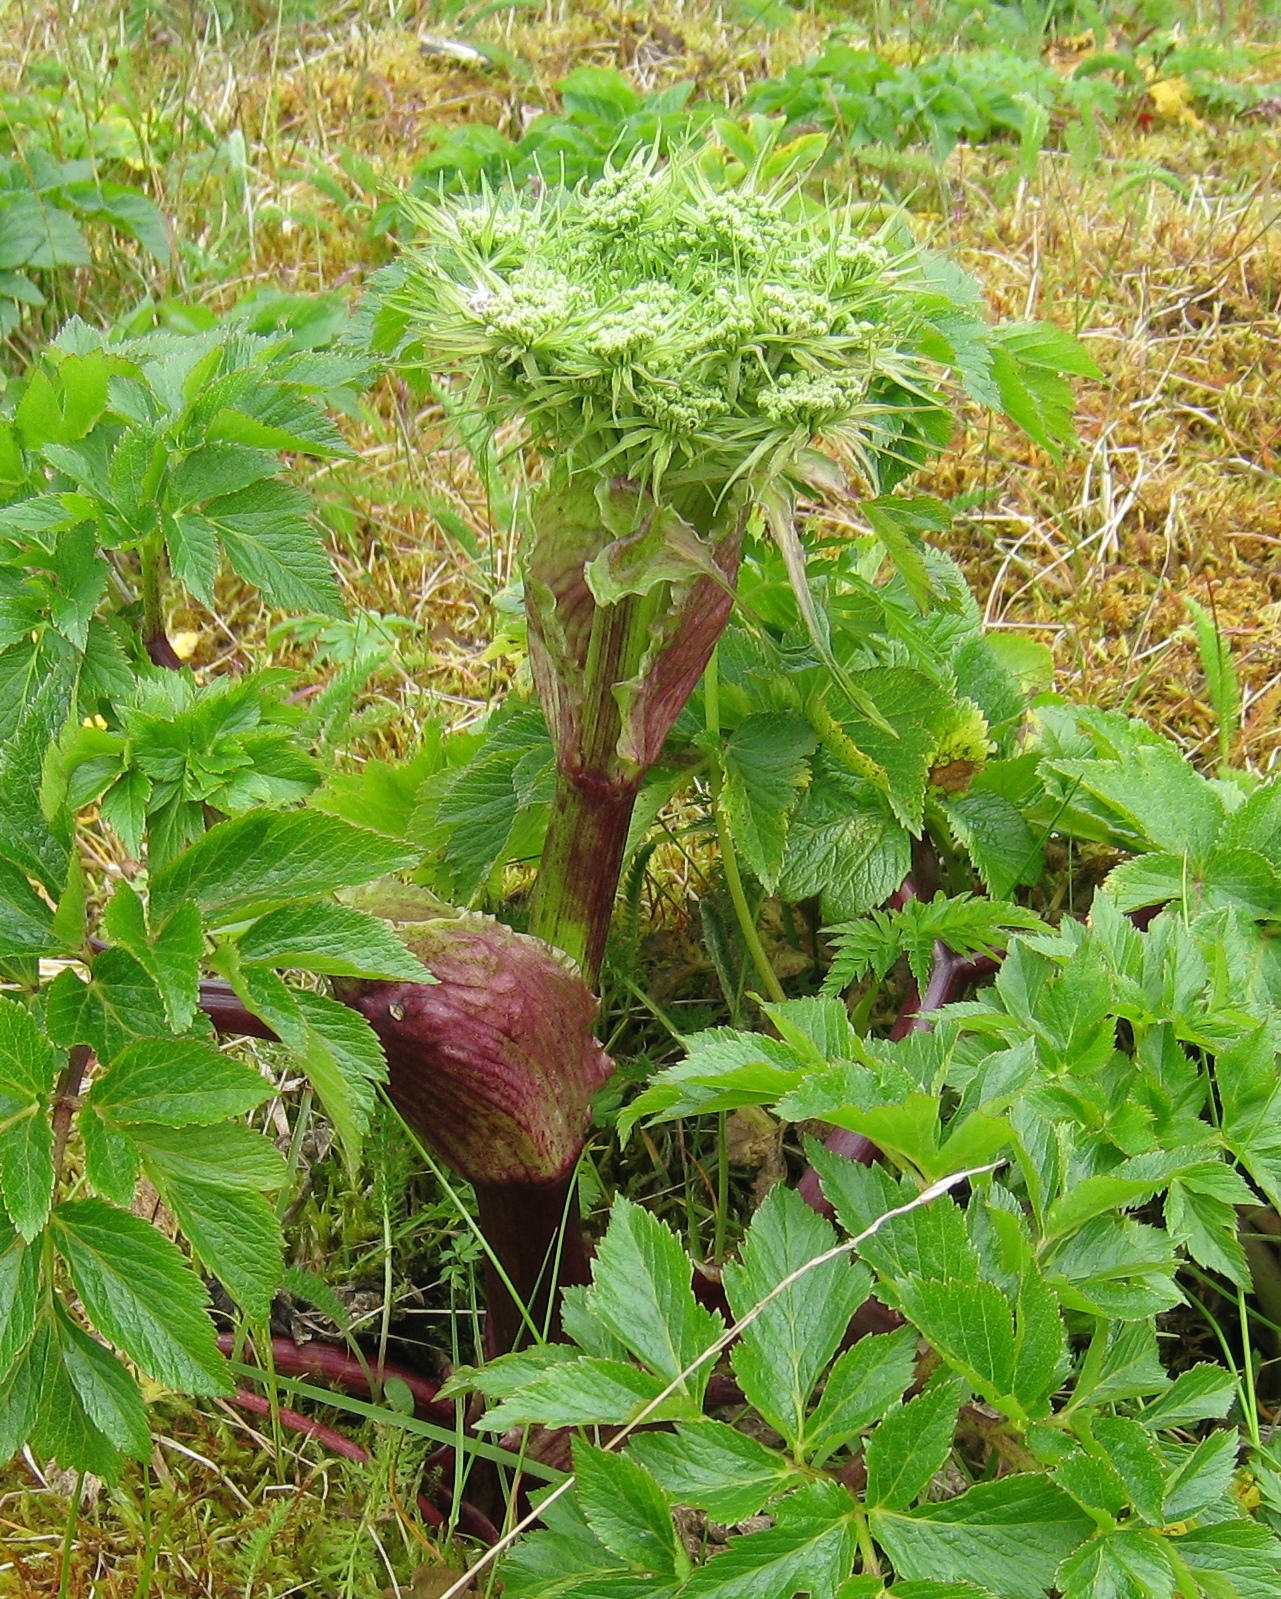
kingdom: Plantae
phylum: Tracheophyta
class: Magnoliopsida
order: Apiales
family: Apiaceae
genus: Angelica
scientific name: Angelica lucida
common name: Seabeach angelica
